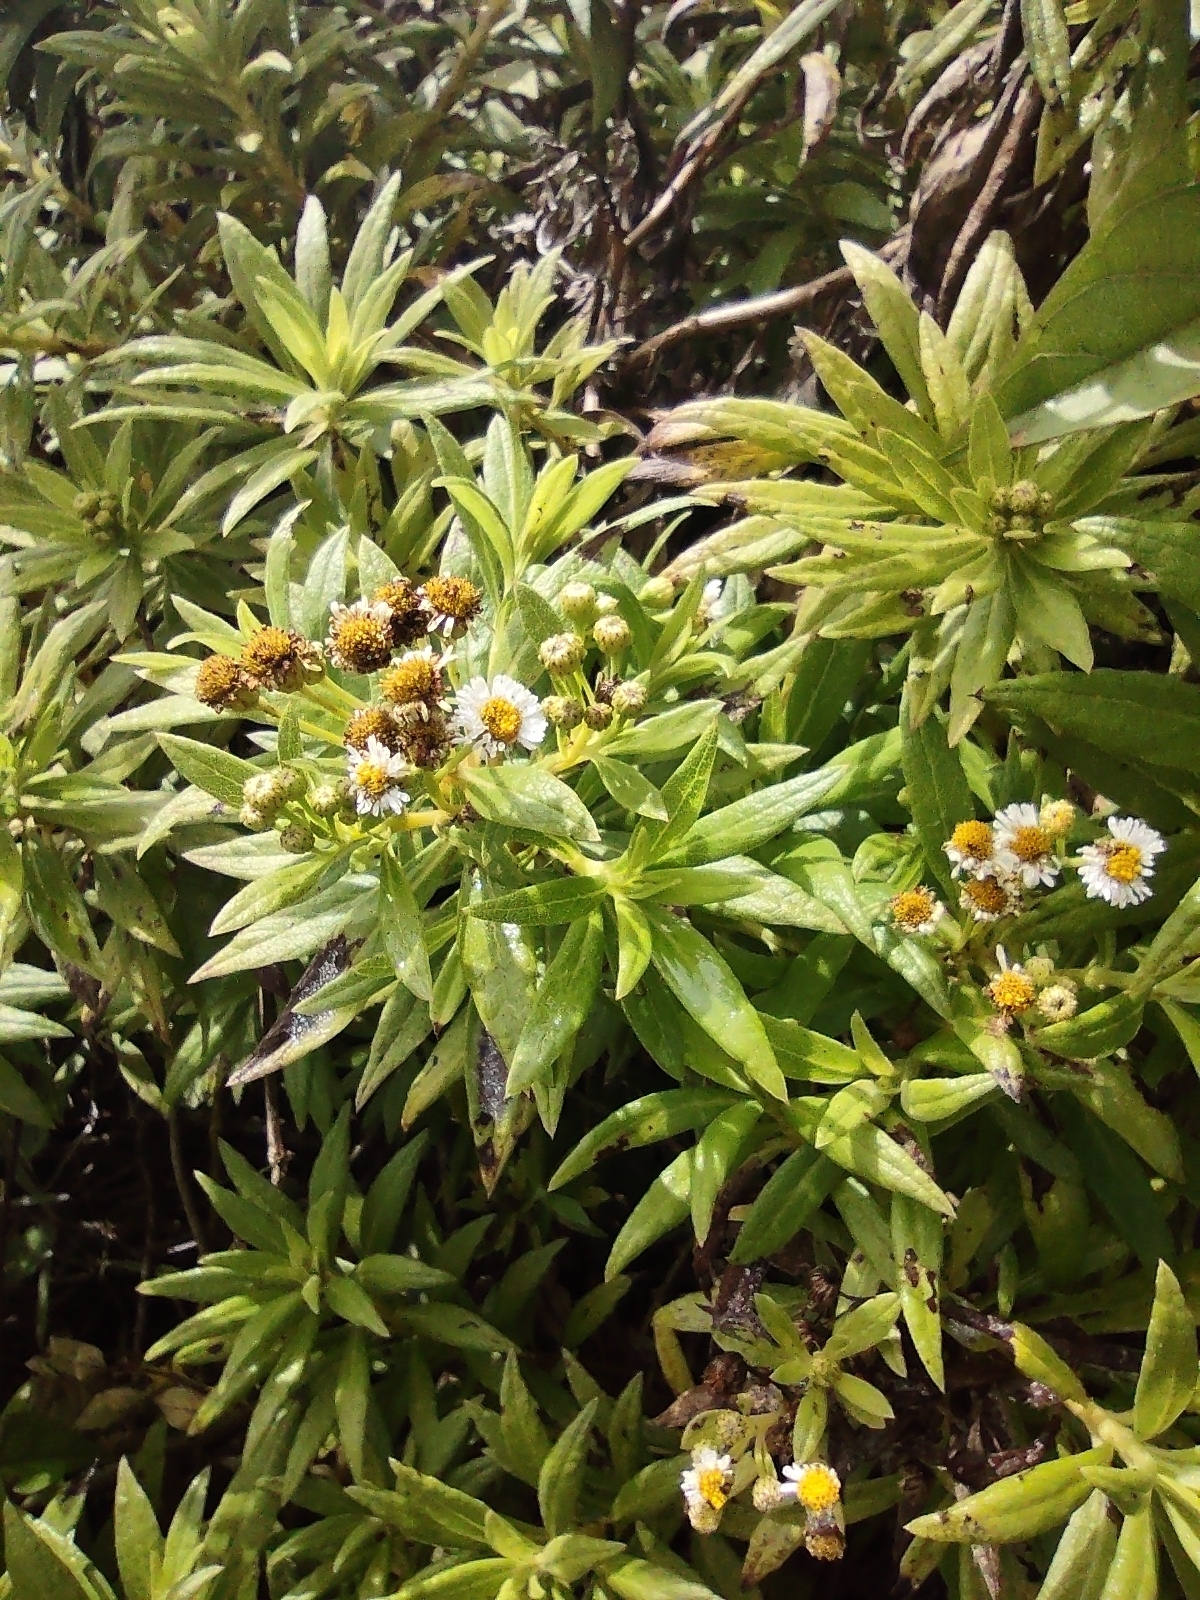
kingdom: Plantae
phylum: Tracheophyta
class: Magnoliopsida
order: Asterales
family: Asteraceae
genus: Erigeron
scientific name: Erigeron lancifolius
